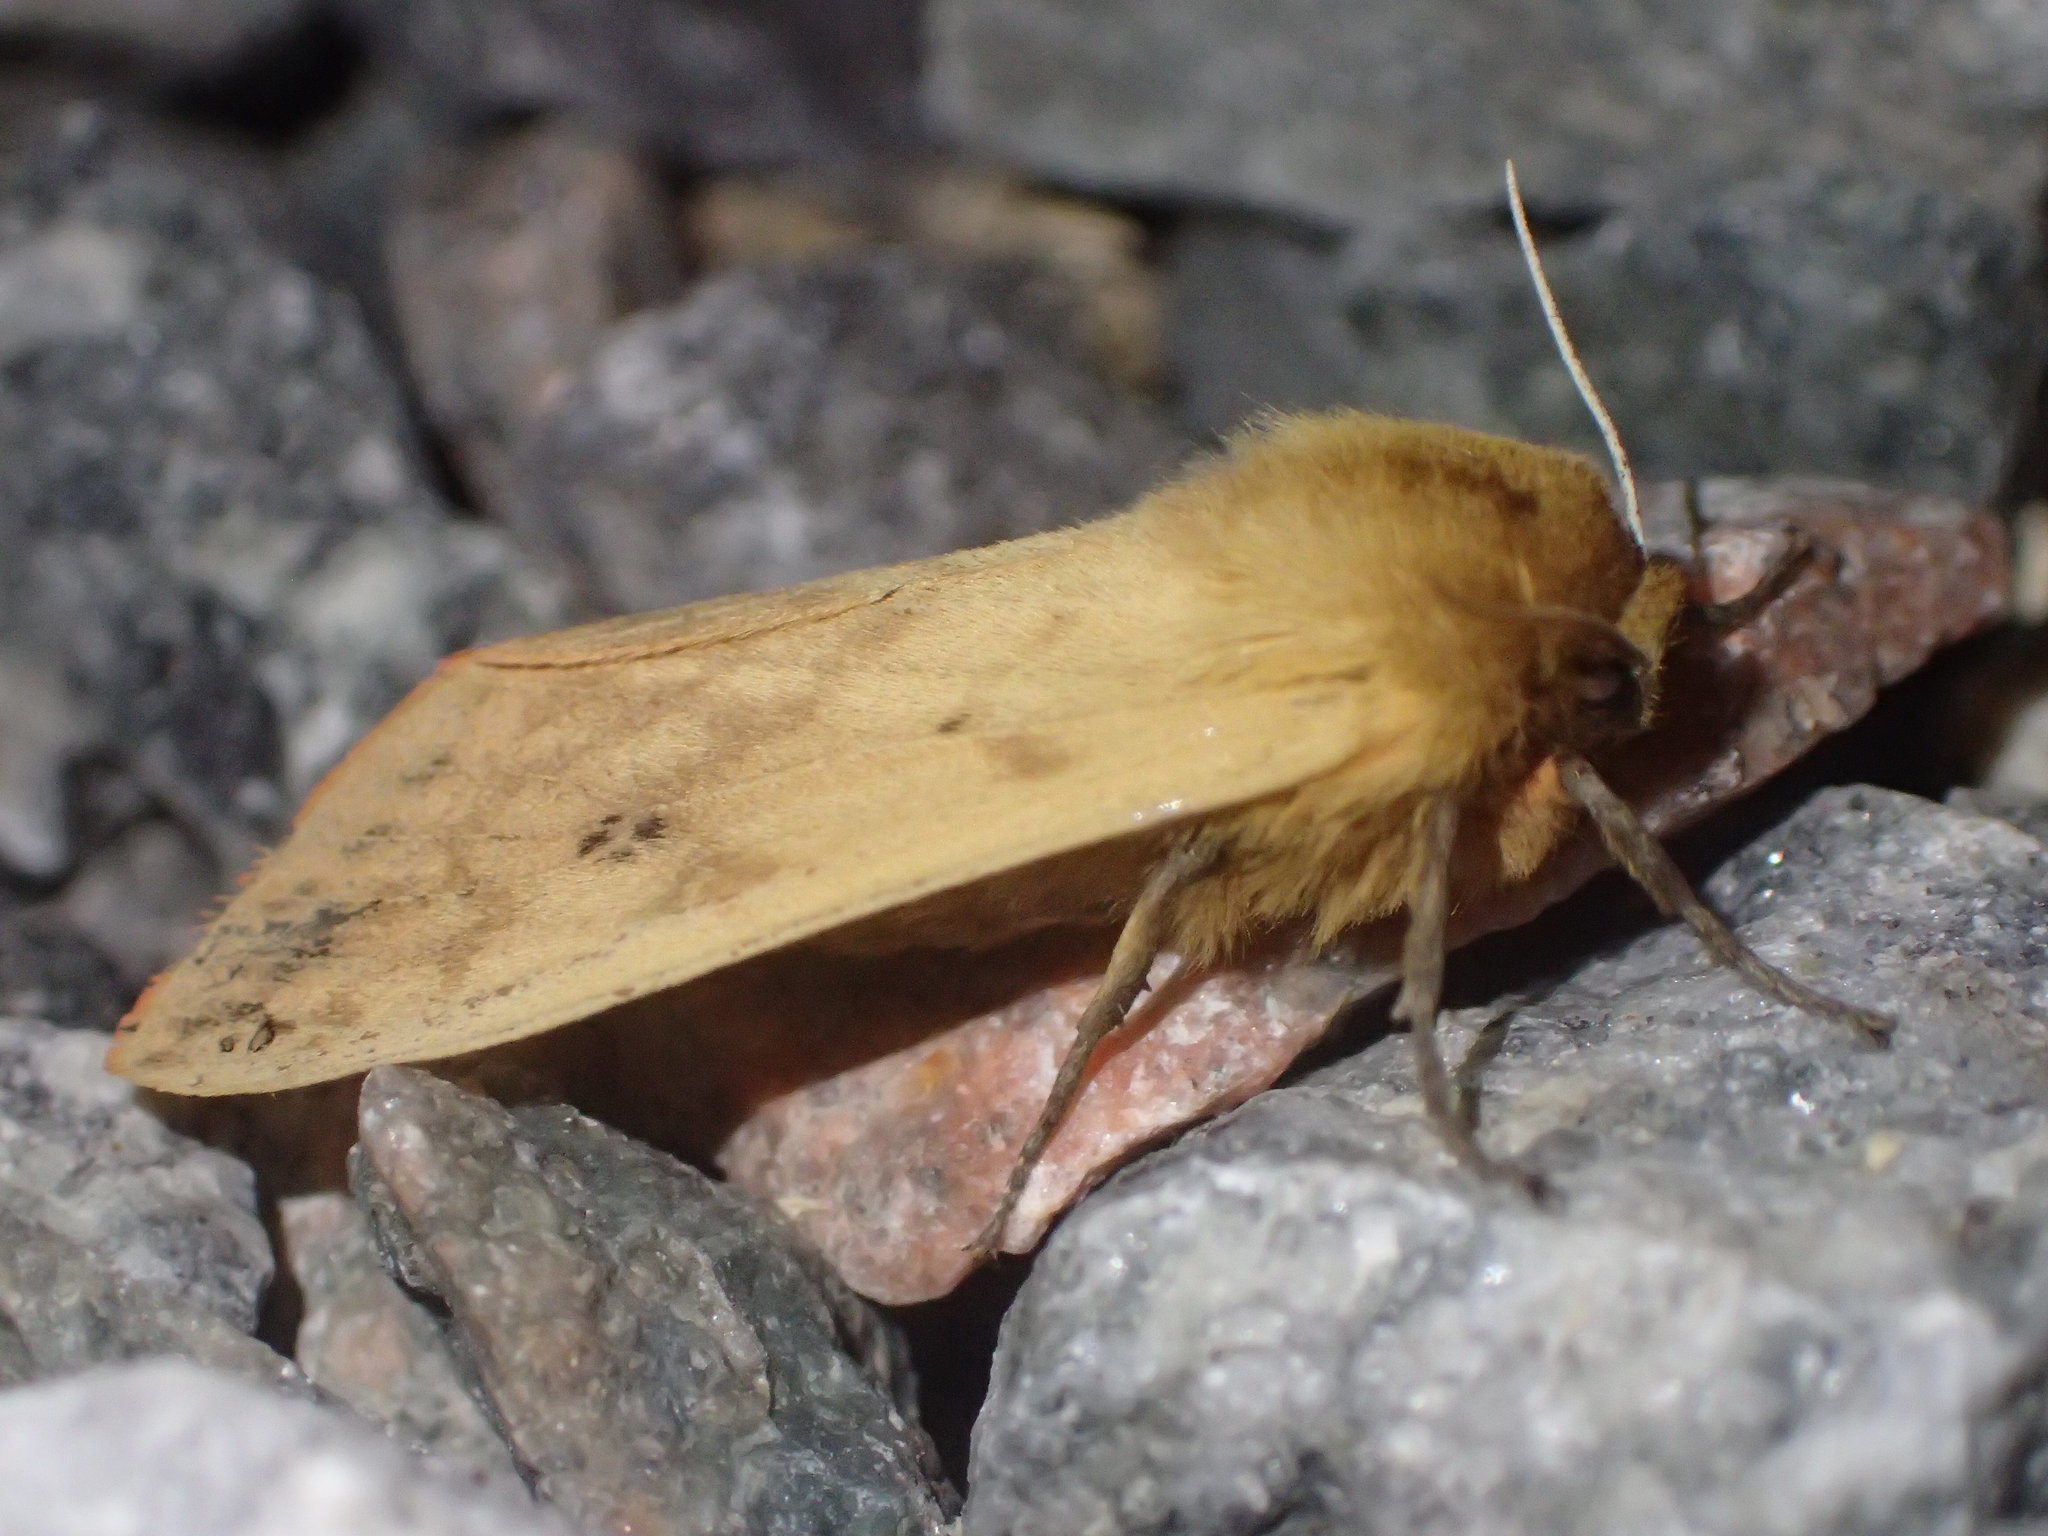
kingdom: Animalia
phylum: Arthropoda
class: Insecta
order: Lepidoptera
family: Erebidae
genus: Pyrrharctia
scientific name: Pyrrharctia isabella
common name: Isabella tiger moth
